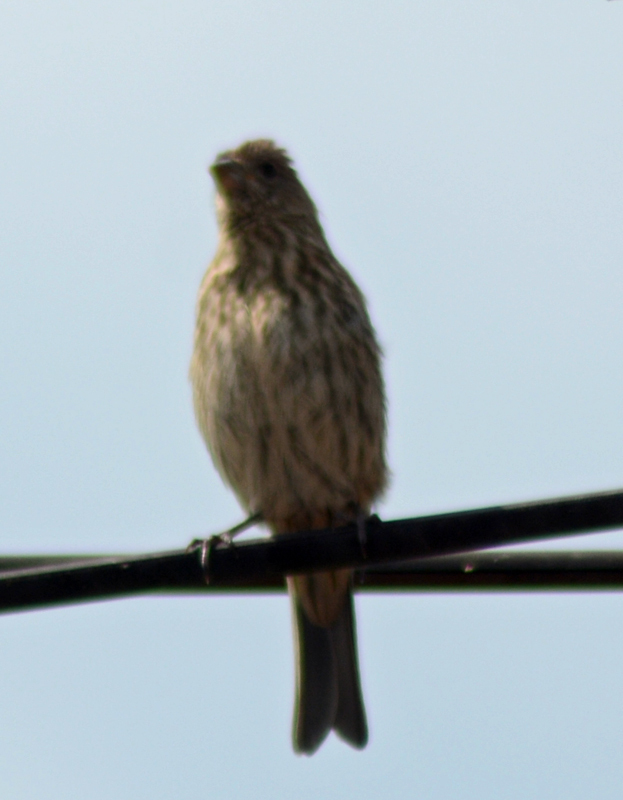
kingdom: Animalia
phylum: Chordata
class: Aves
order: Passeriformes
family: Fringillidae
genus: Haemorhous
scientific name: Haemorhous mexicanus
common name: House finch
